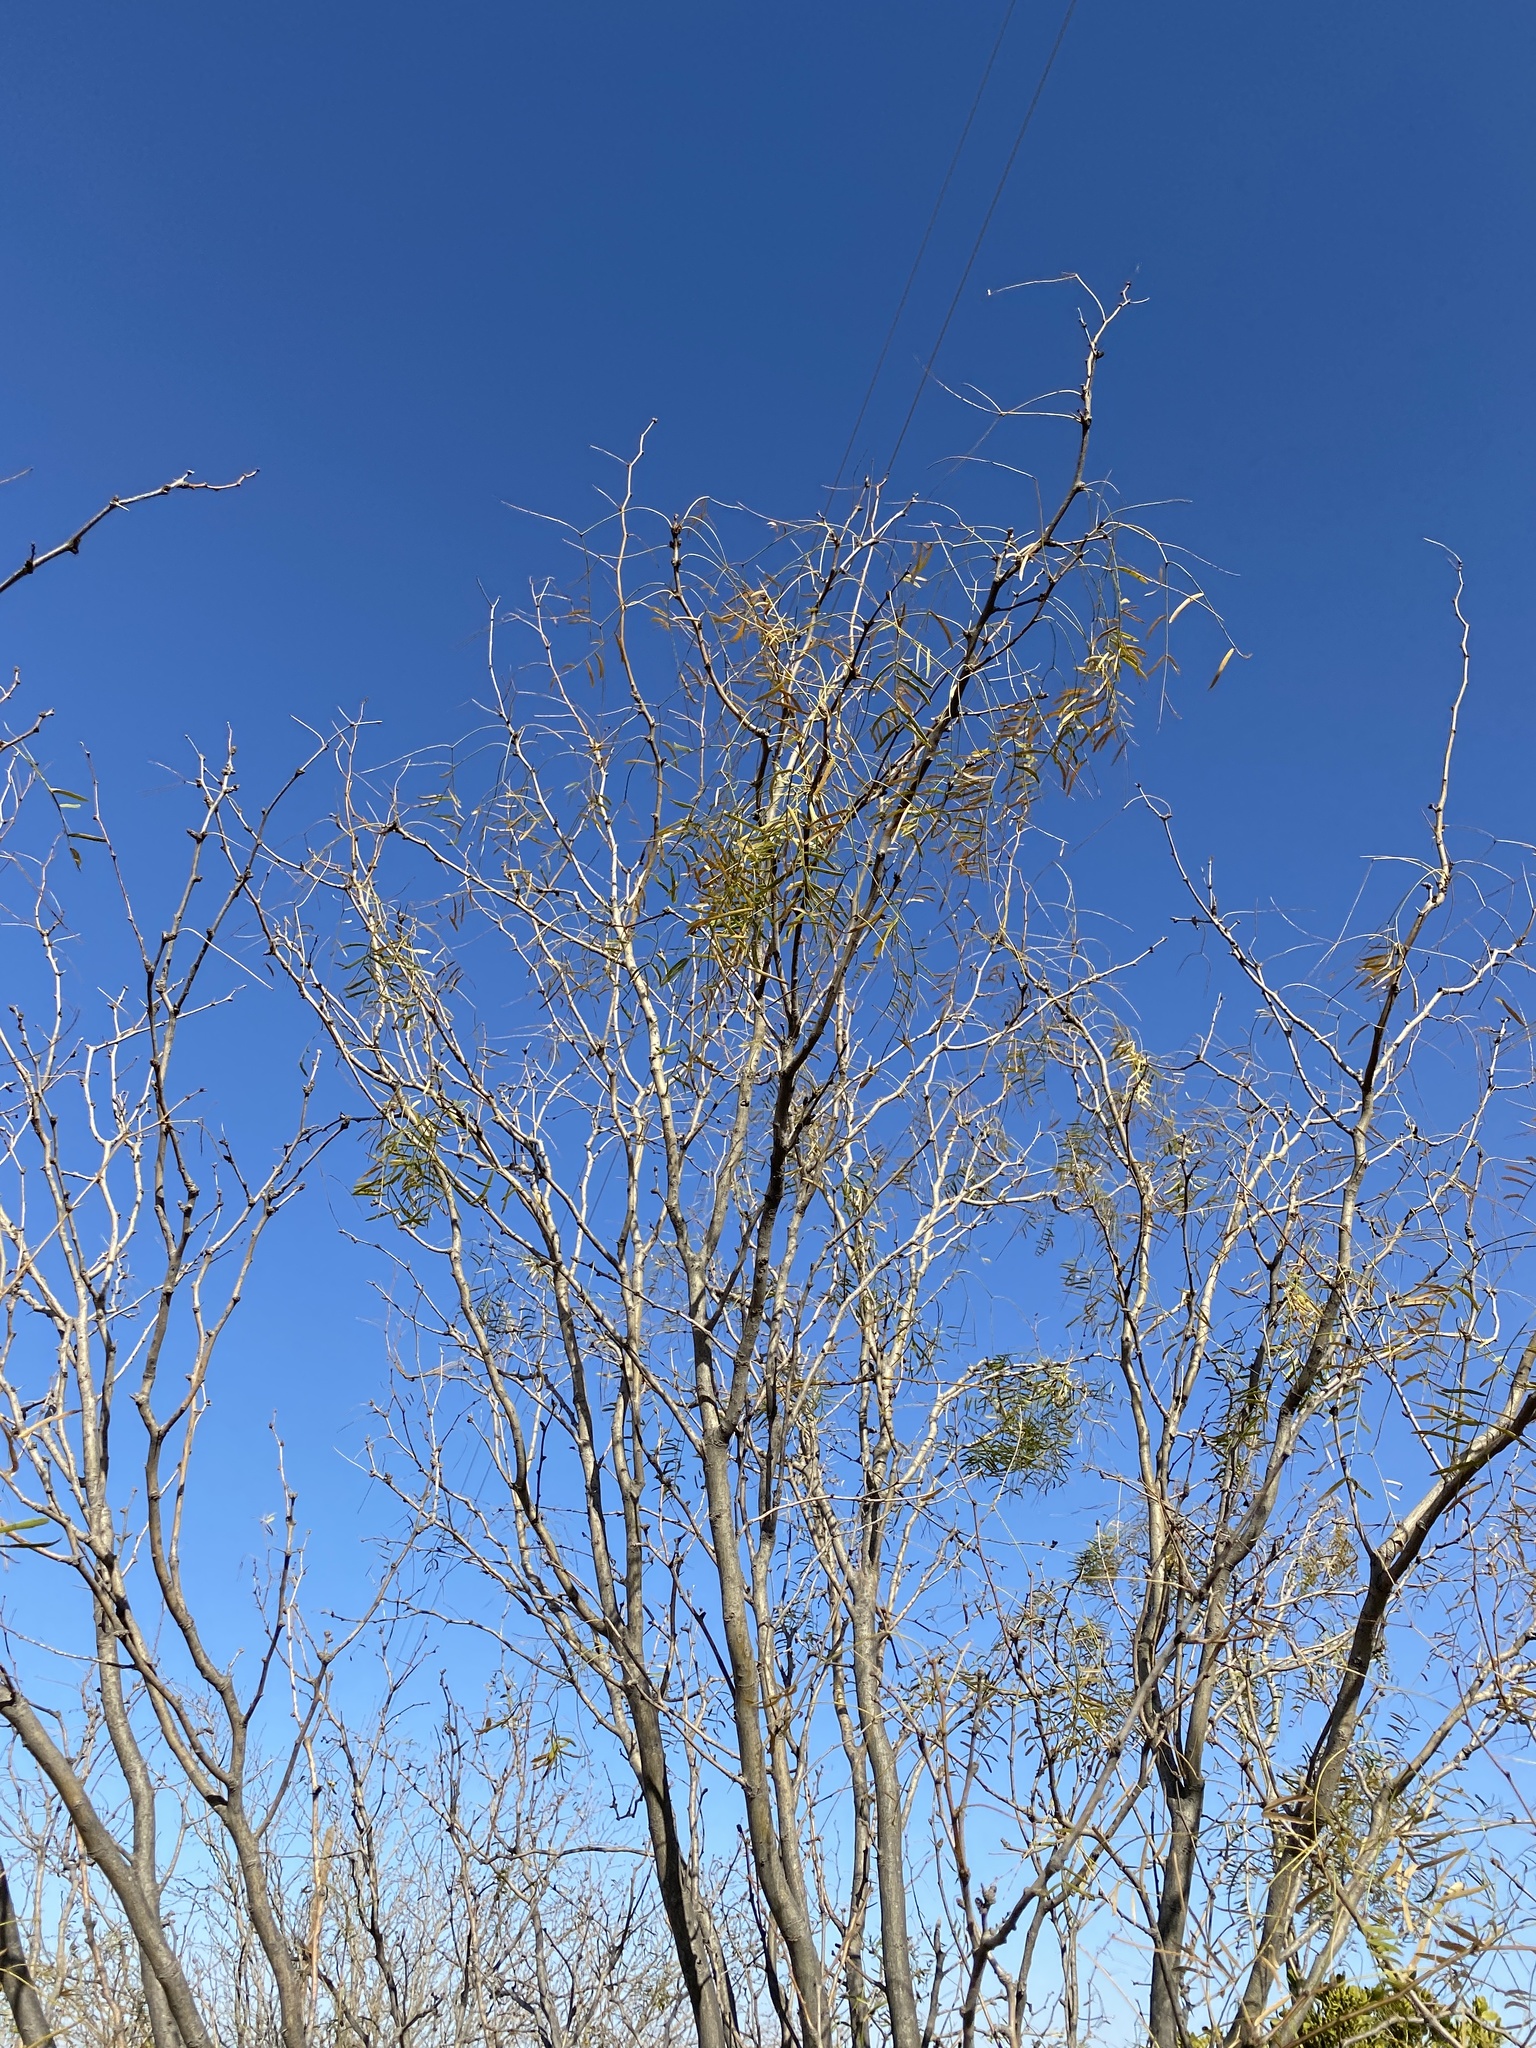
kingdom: Plantae
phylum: Tracheophyta
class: Magnoliopsida
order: Fabales
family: Fabaceae
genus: Prosopis
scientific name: Prosopis glandulosa
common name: Honey mesquite
